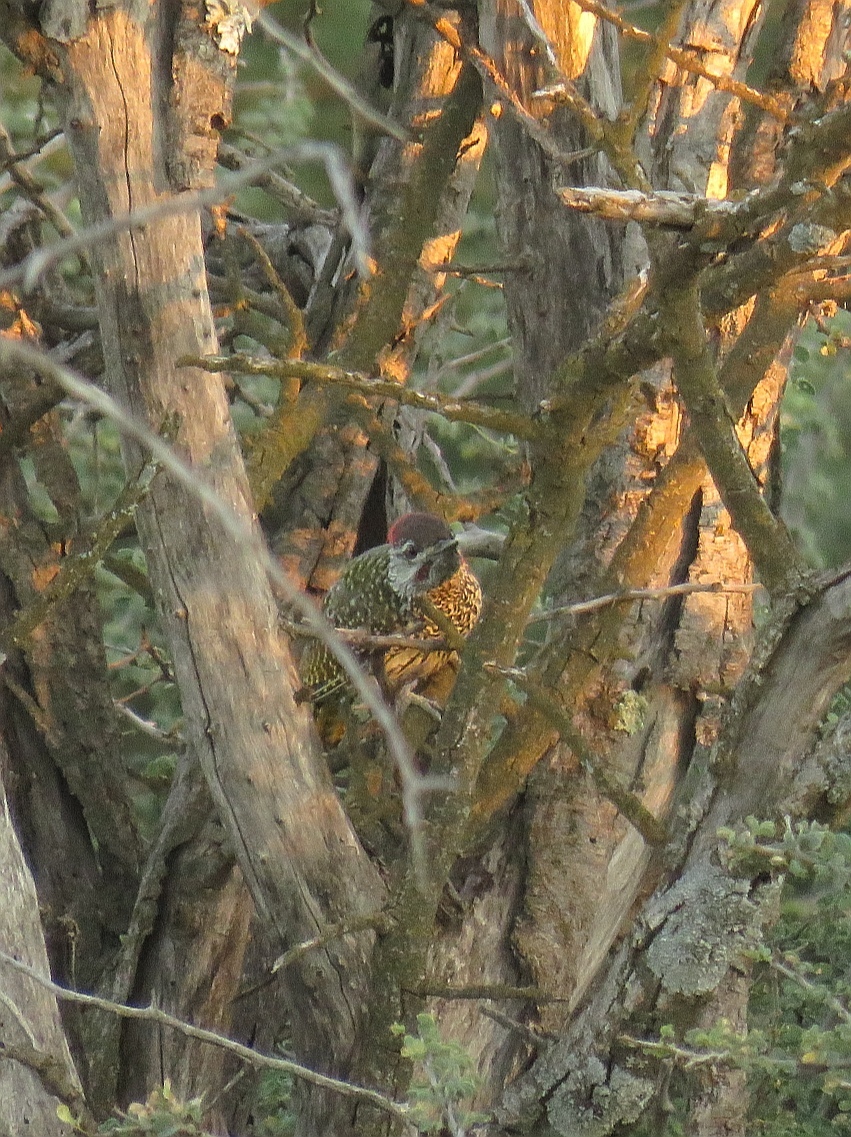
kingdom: Animalia
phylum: Chordata
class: Aves
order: Piciformes
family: Picidae
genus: Campethera
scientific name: Campethera abingoni
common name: Golden-tailed woodpecker
